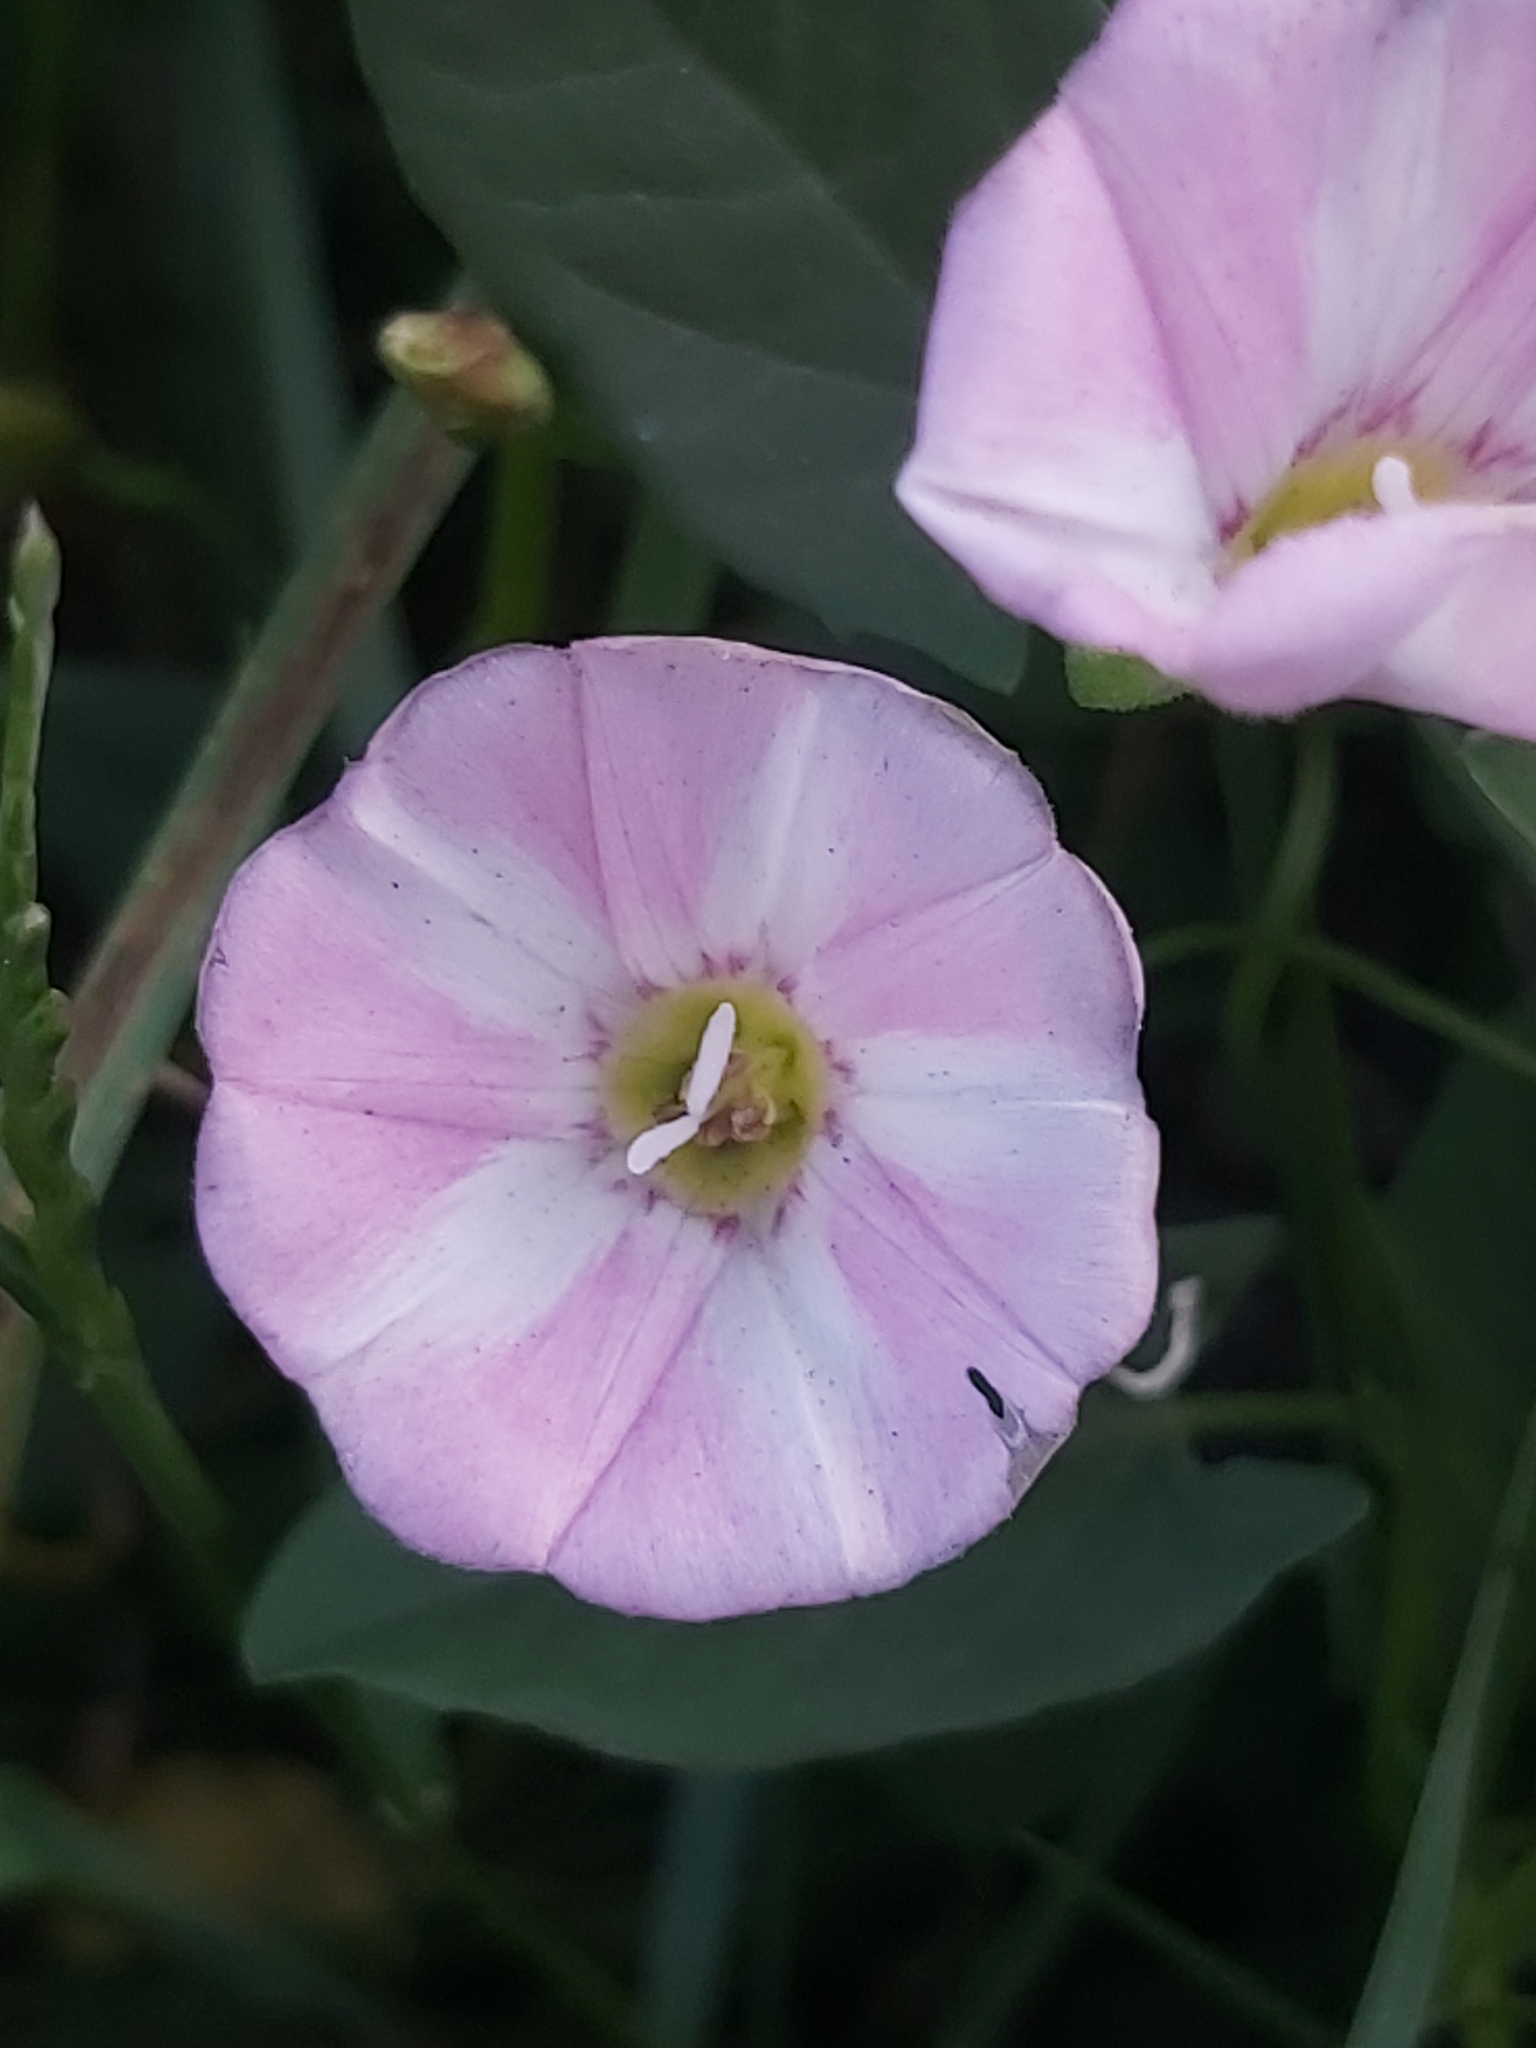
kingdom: Plantae
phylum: Tracheophyta
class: Magnoliopsida
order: Solanales
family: Convolvulaceae
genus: Convolvulus
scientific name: Convolvulus arvensis
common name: Field bindweed
